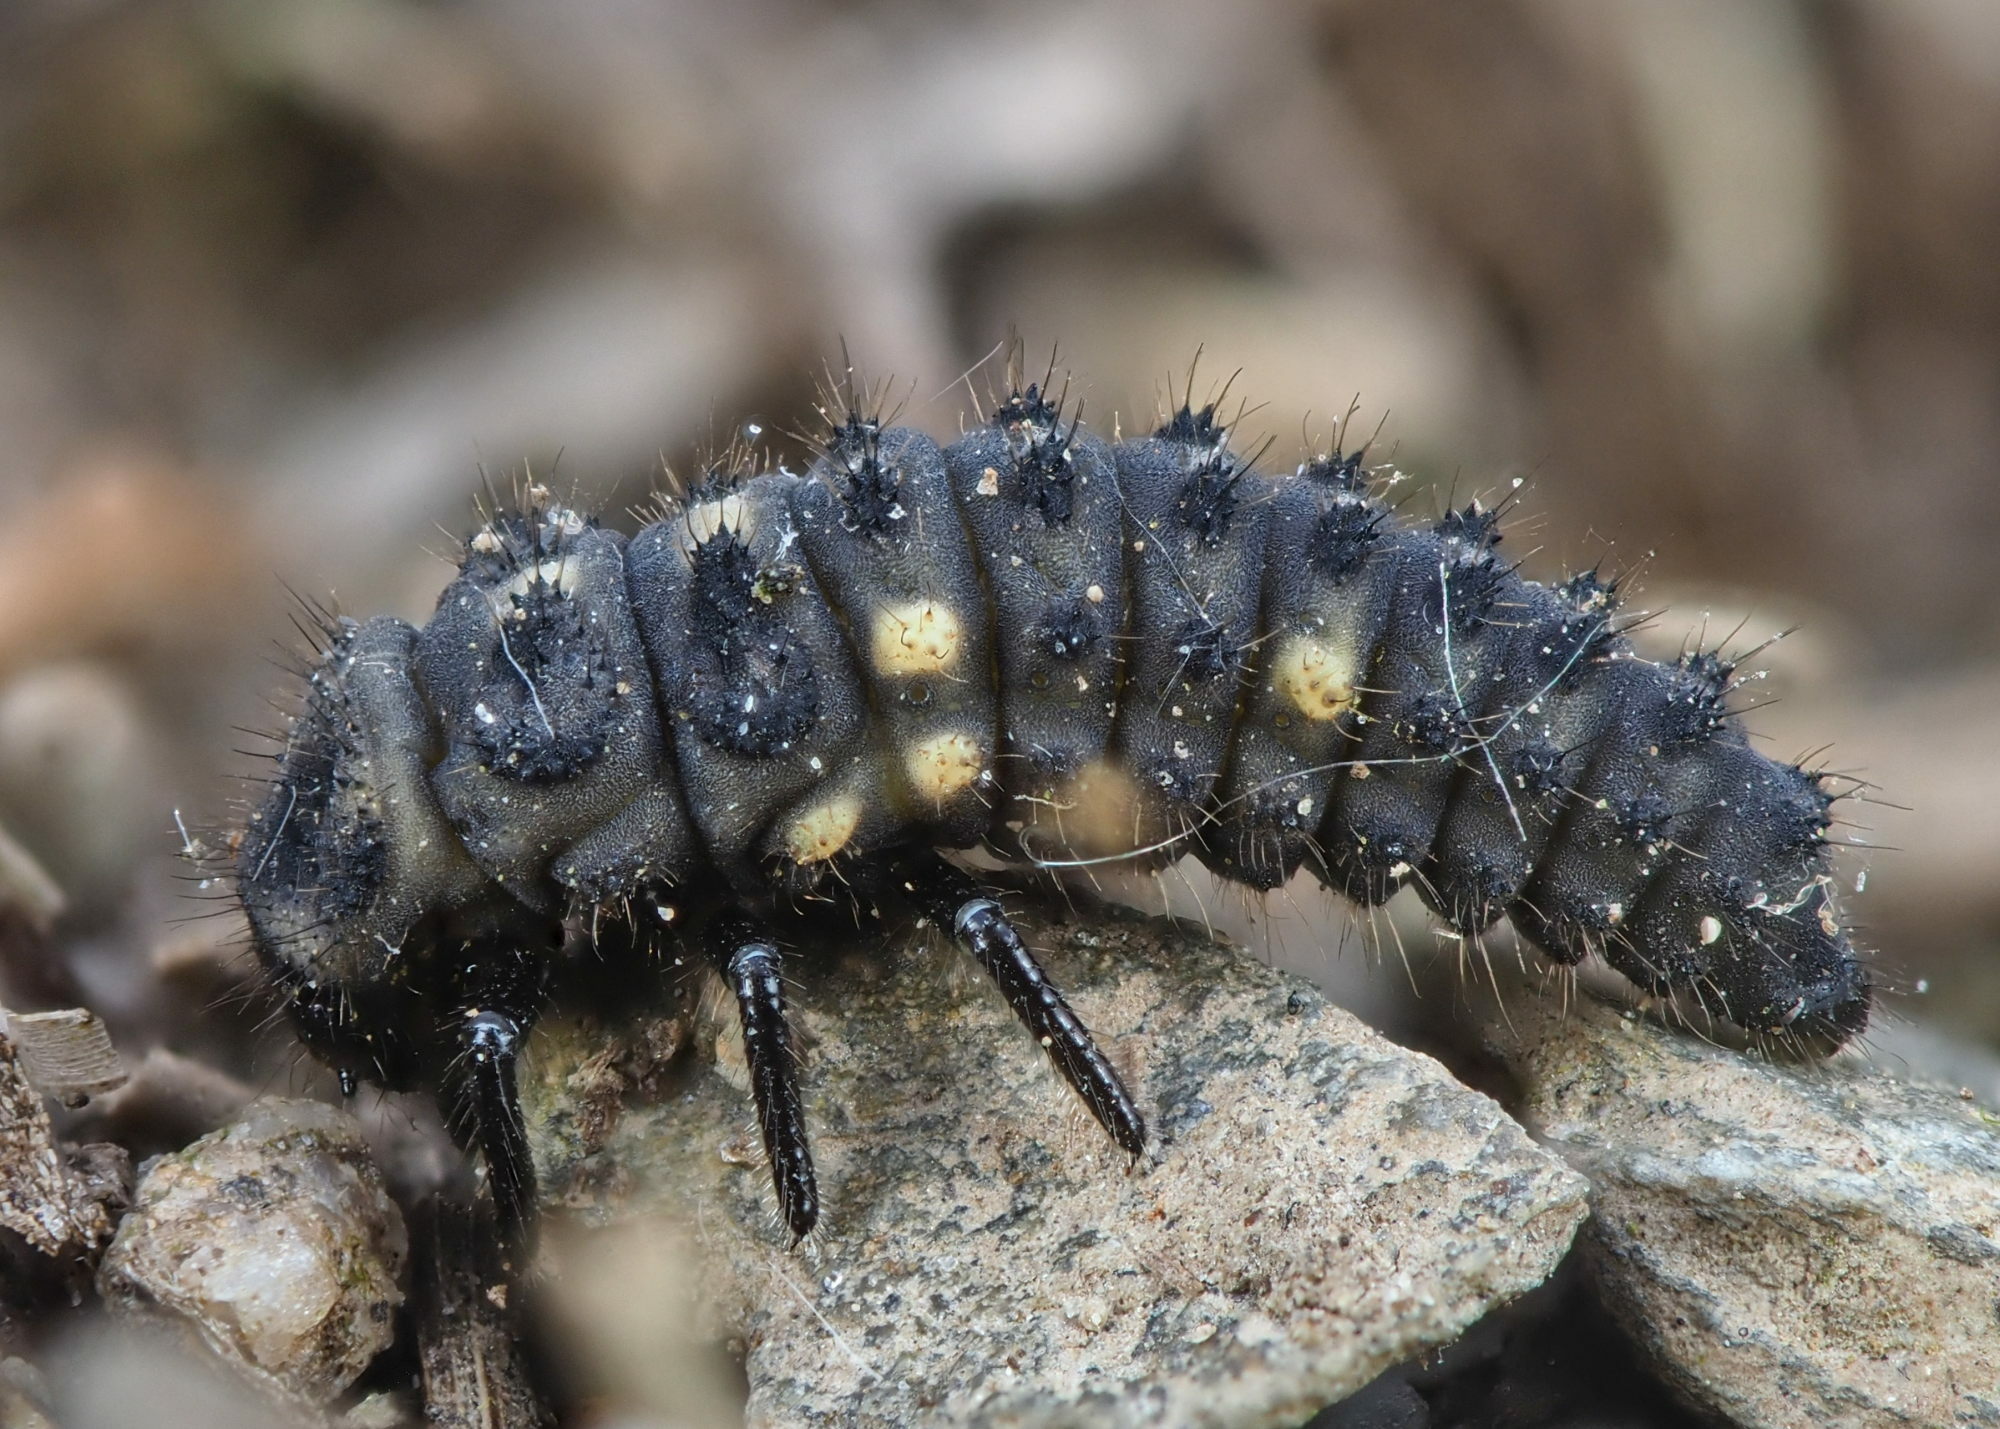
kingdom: Animalia
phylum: Arthropoda
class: Insecta
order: Coleoptera
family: Coccinellidae
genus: Coccinella
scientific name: Coccinella hieroglyphica
